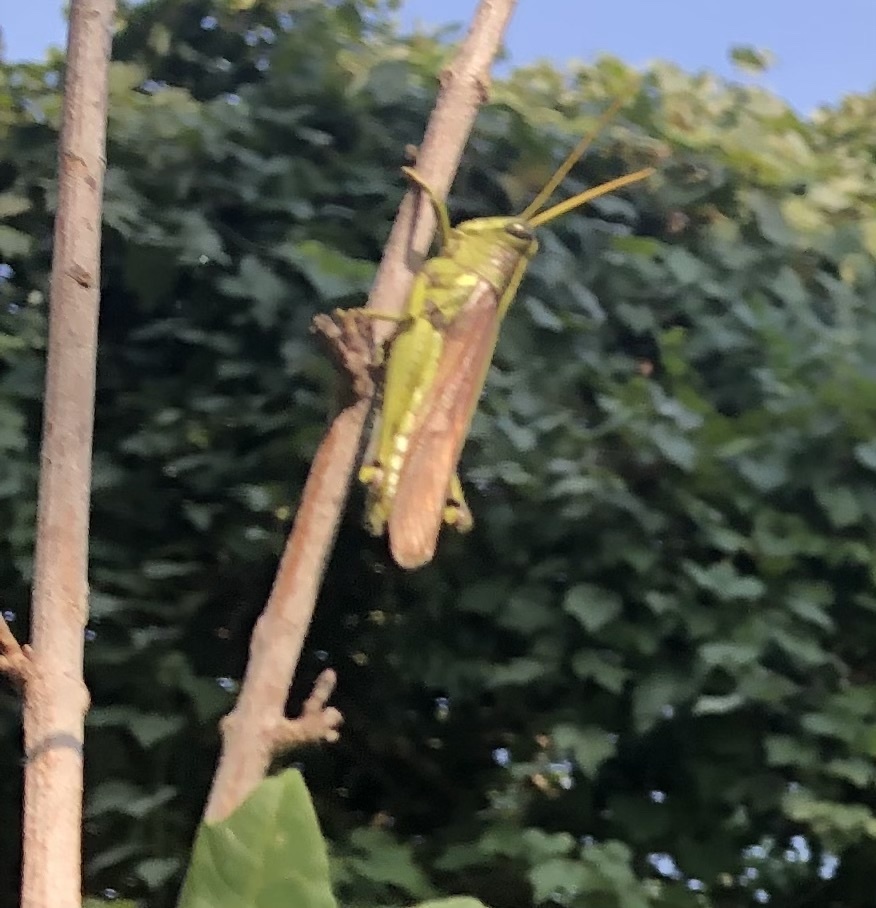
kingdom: Animalia
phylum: Arthropoda
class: Insecta
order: Orthoptera
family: Acrididae
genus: Schistocerca
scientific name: Schistocerca obscura
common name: Obscure bird grasshopper
